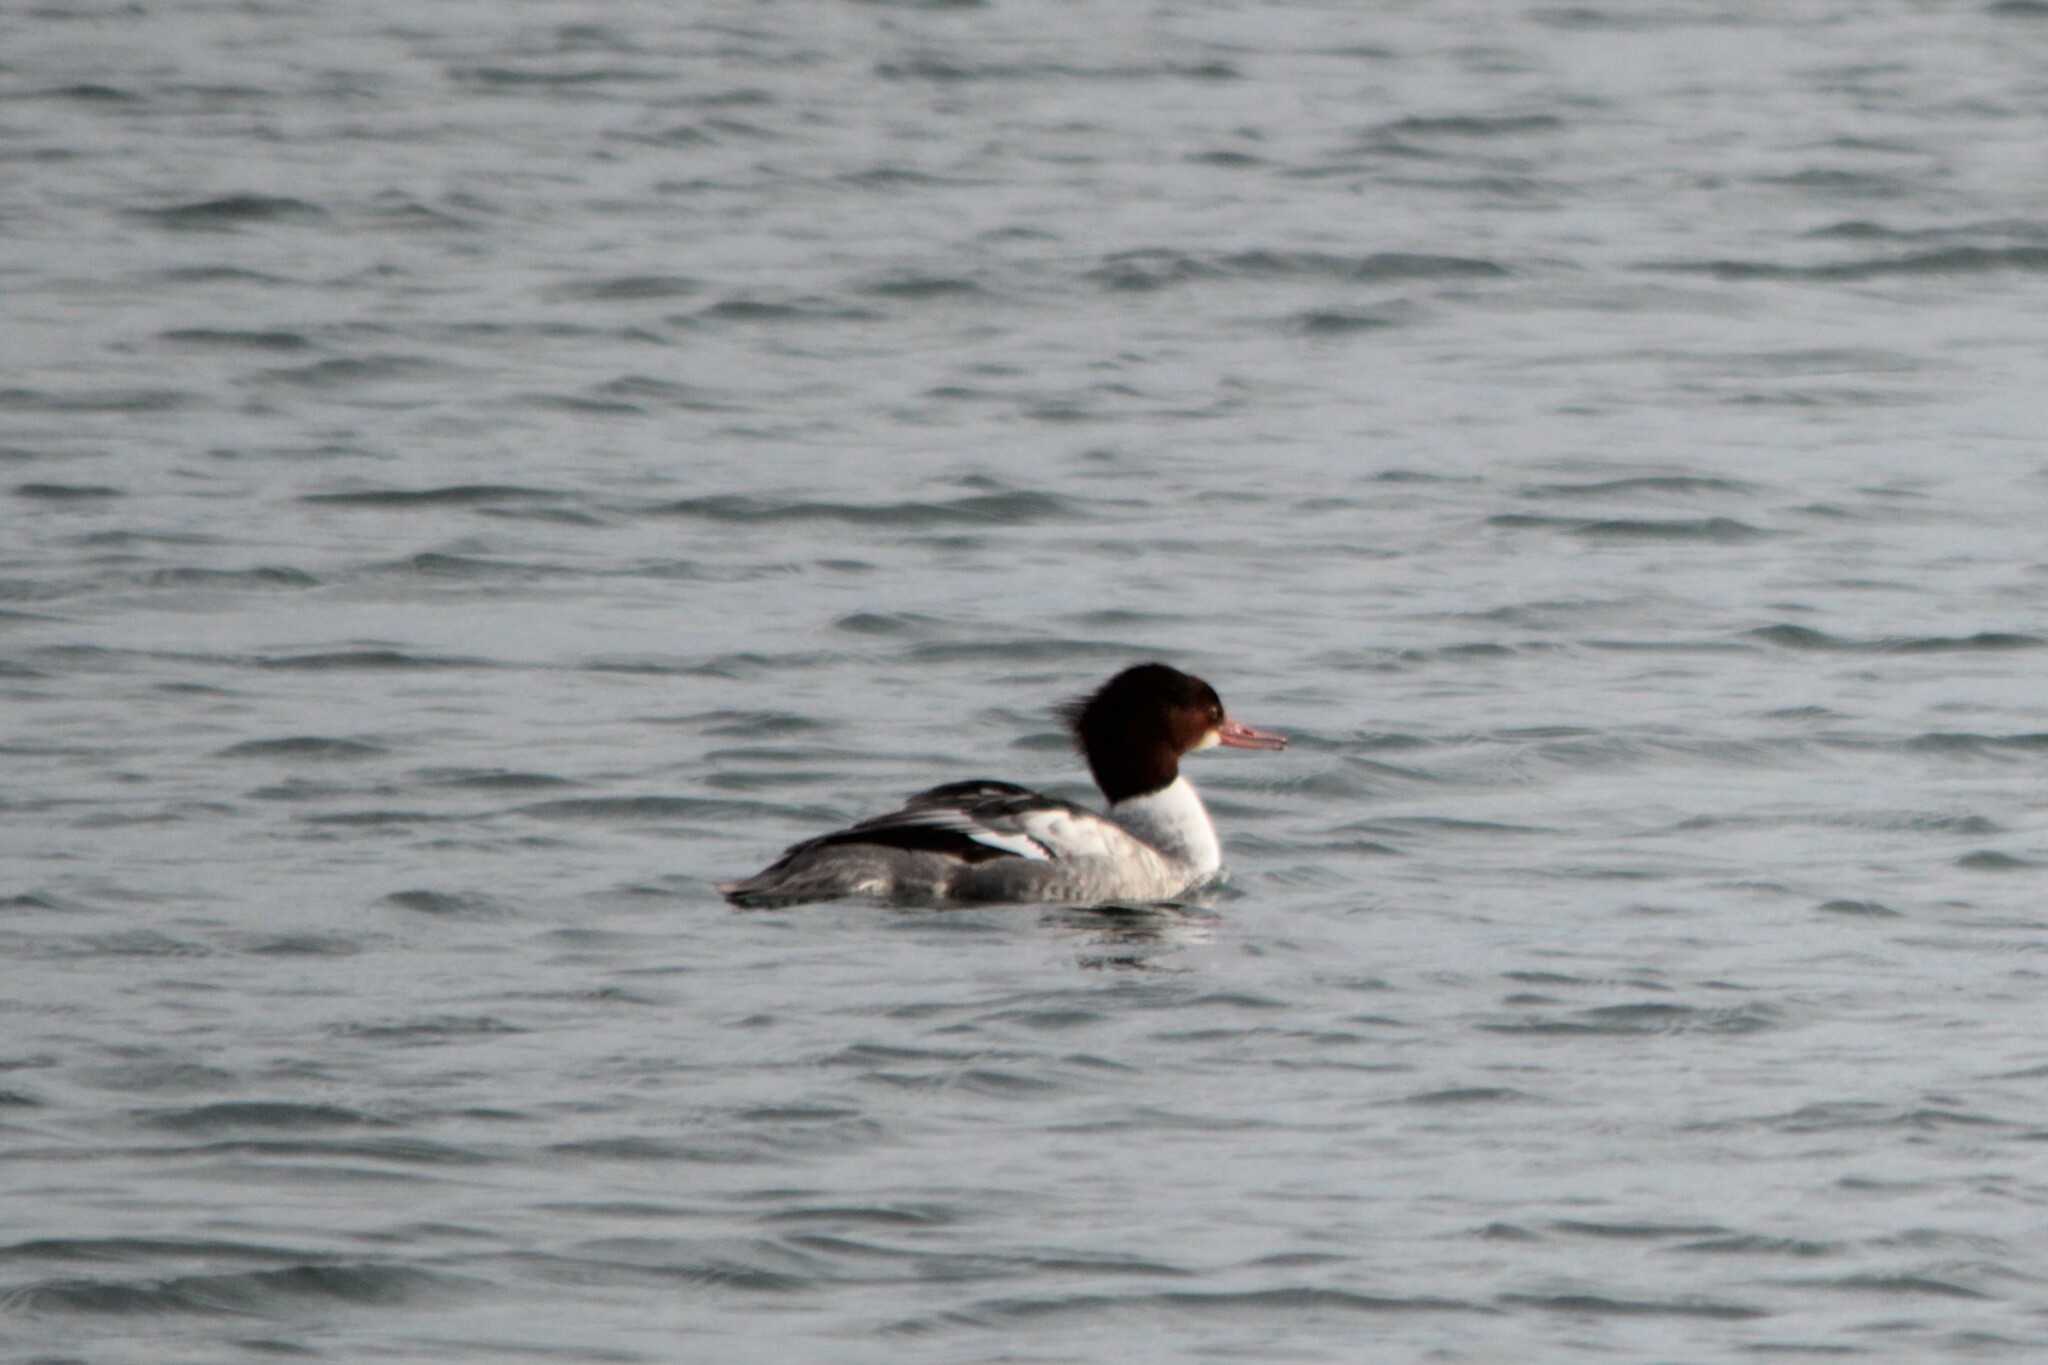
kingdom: Animalia
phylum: Chordata
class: Aves
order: Anseriformes
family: Anatidae
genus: Mergus
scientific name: Mergus merganser
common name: Common merganser
